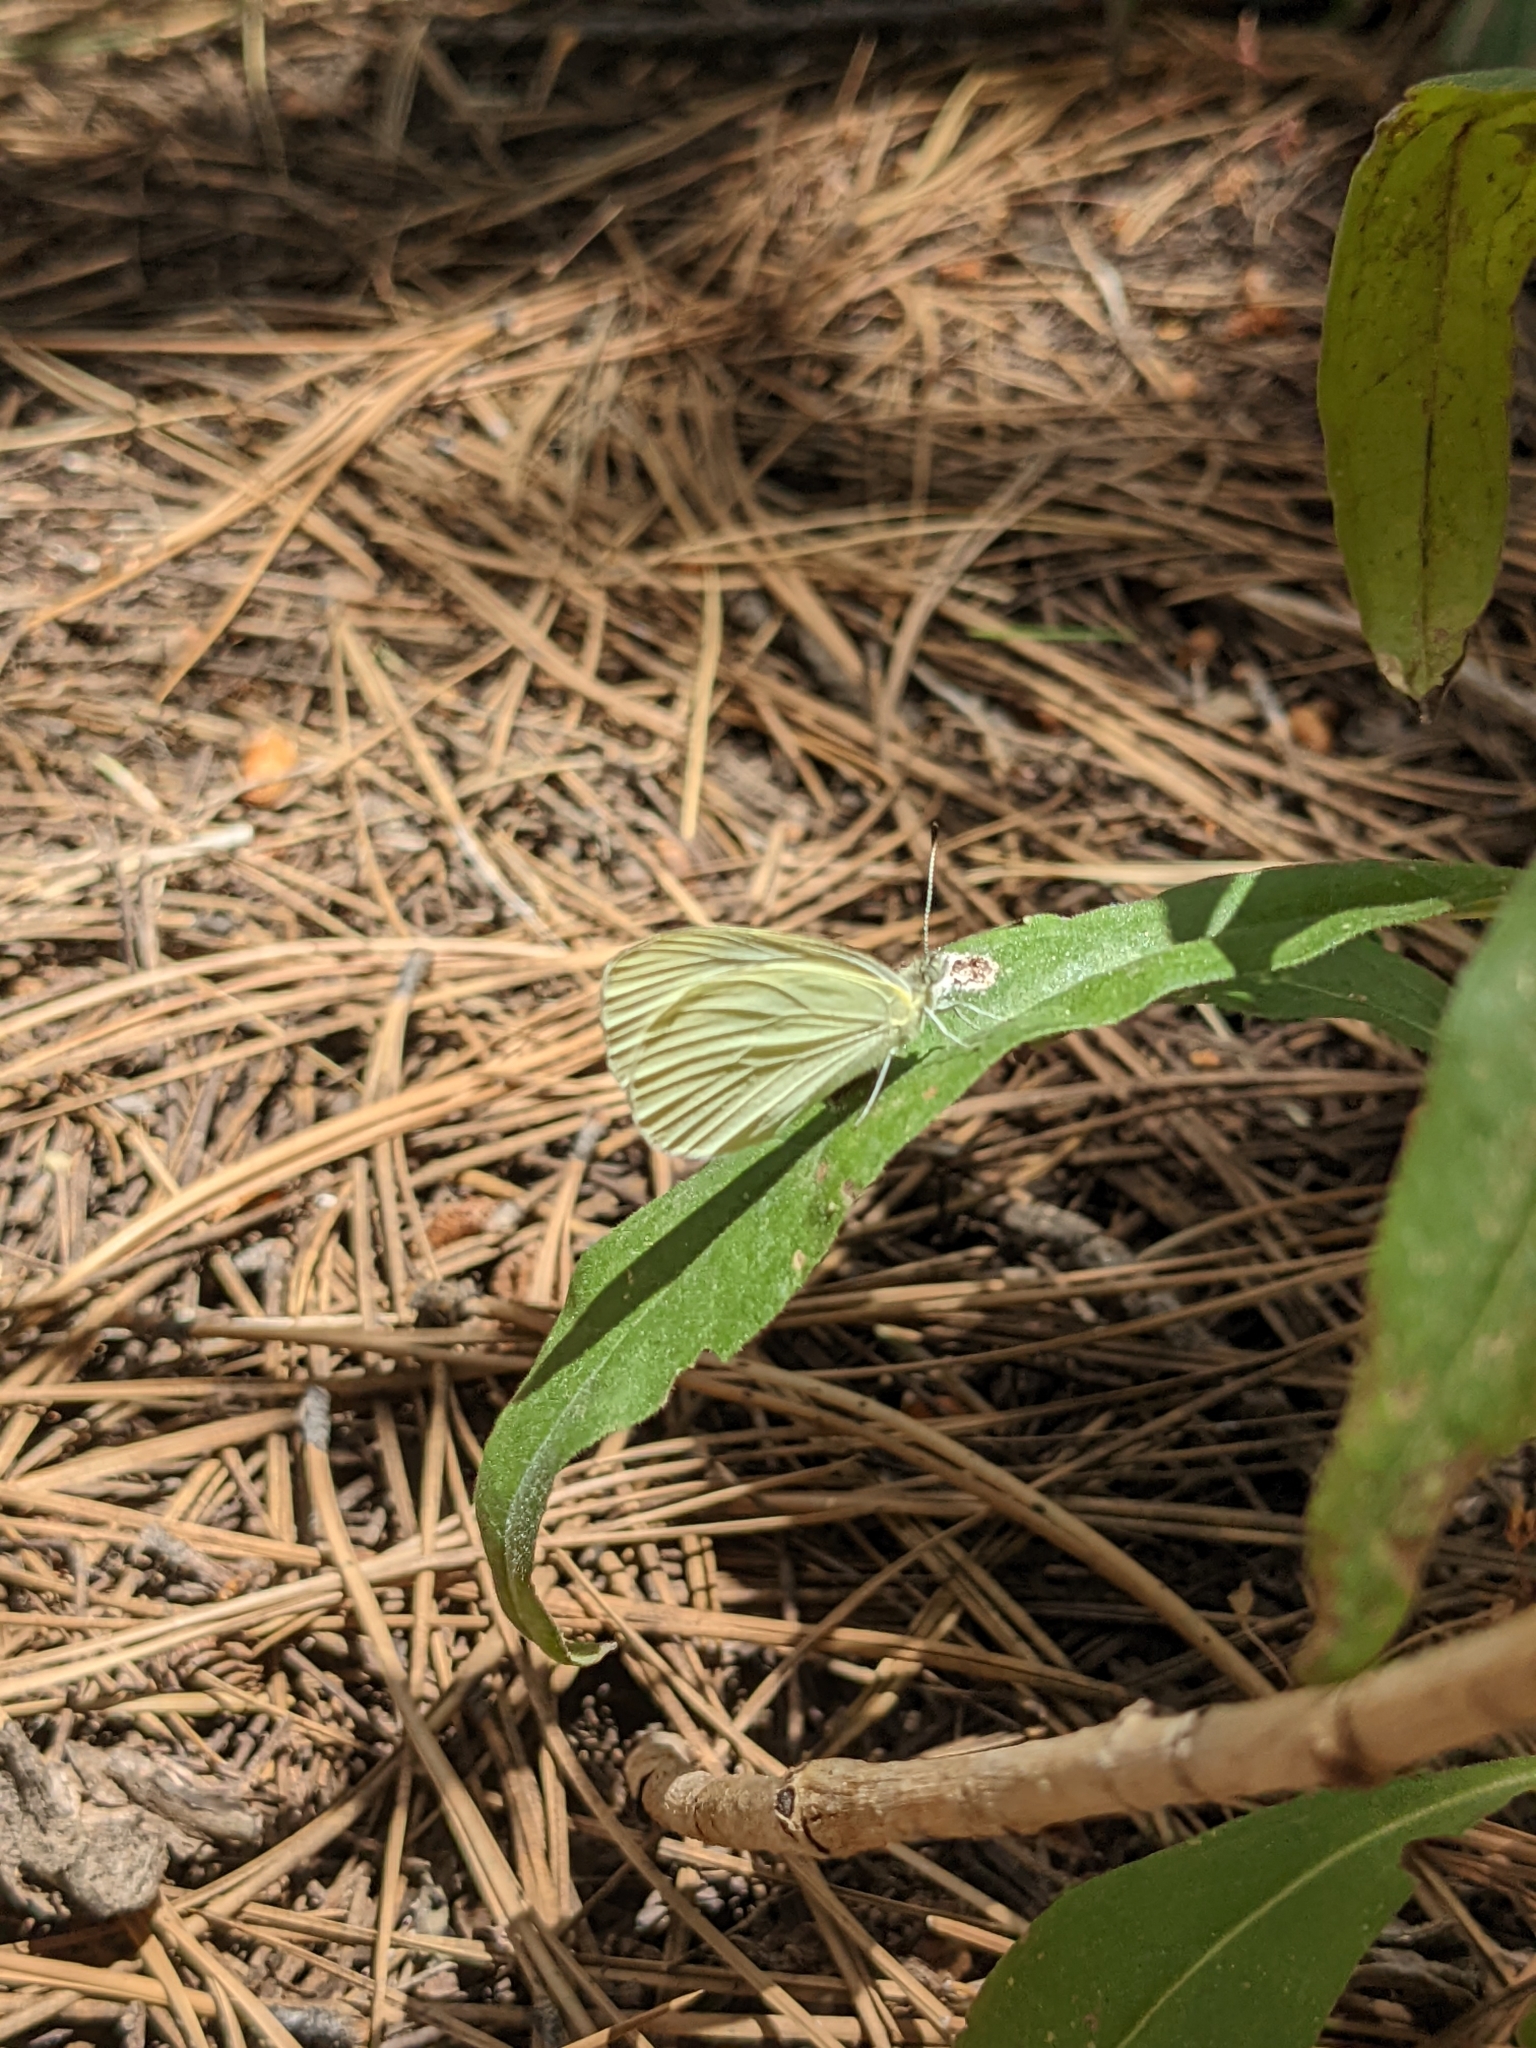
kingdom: Animalia
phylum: Arthropoda
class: Insecta
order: Lepidoptera
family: Pieridae
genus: Pieris
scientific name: Pieris marginalis
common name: Margined white
